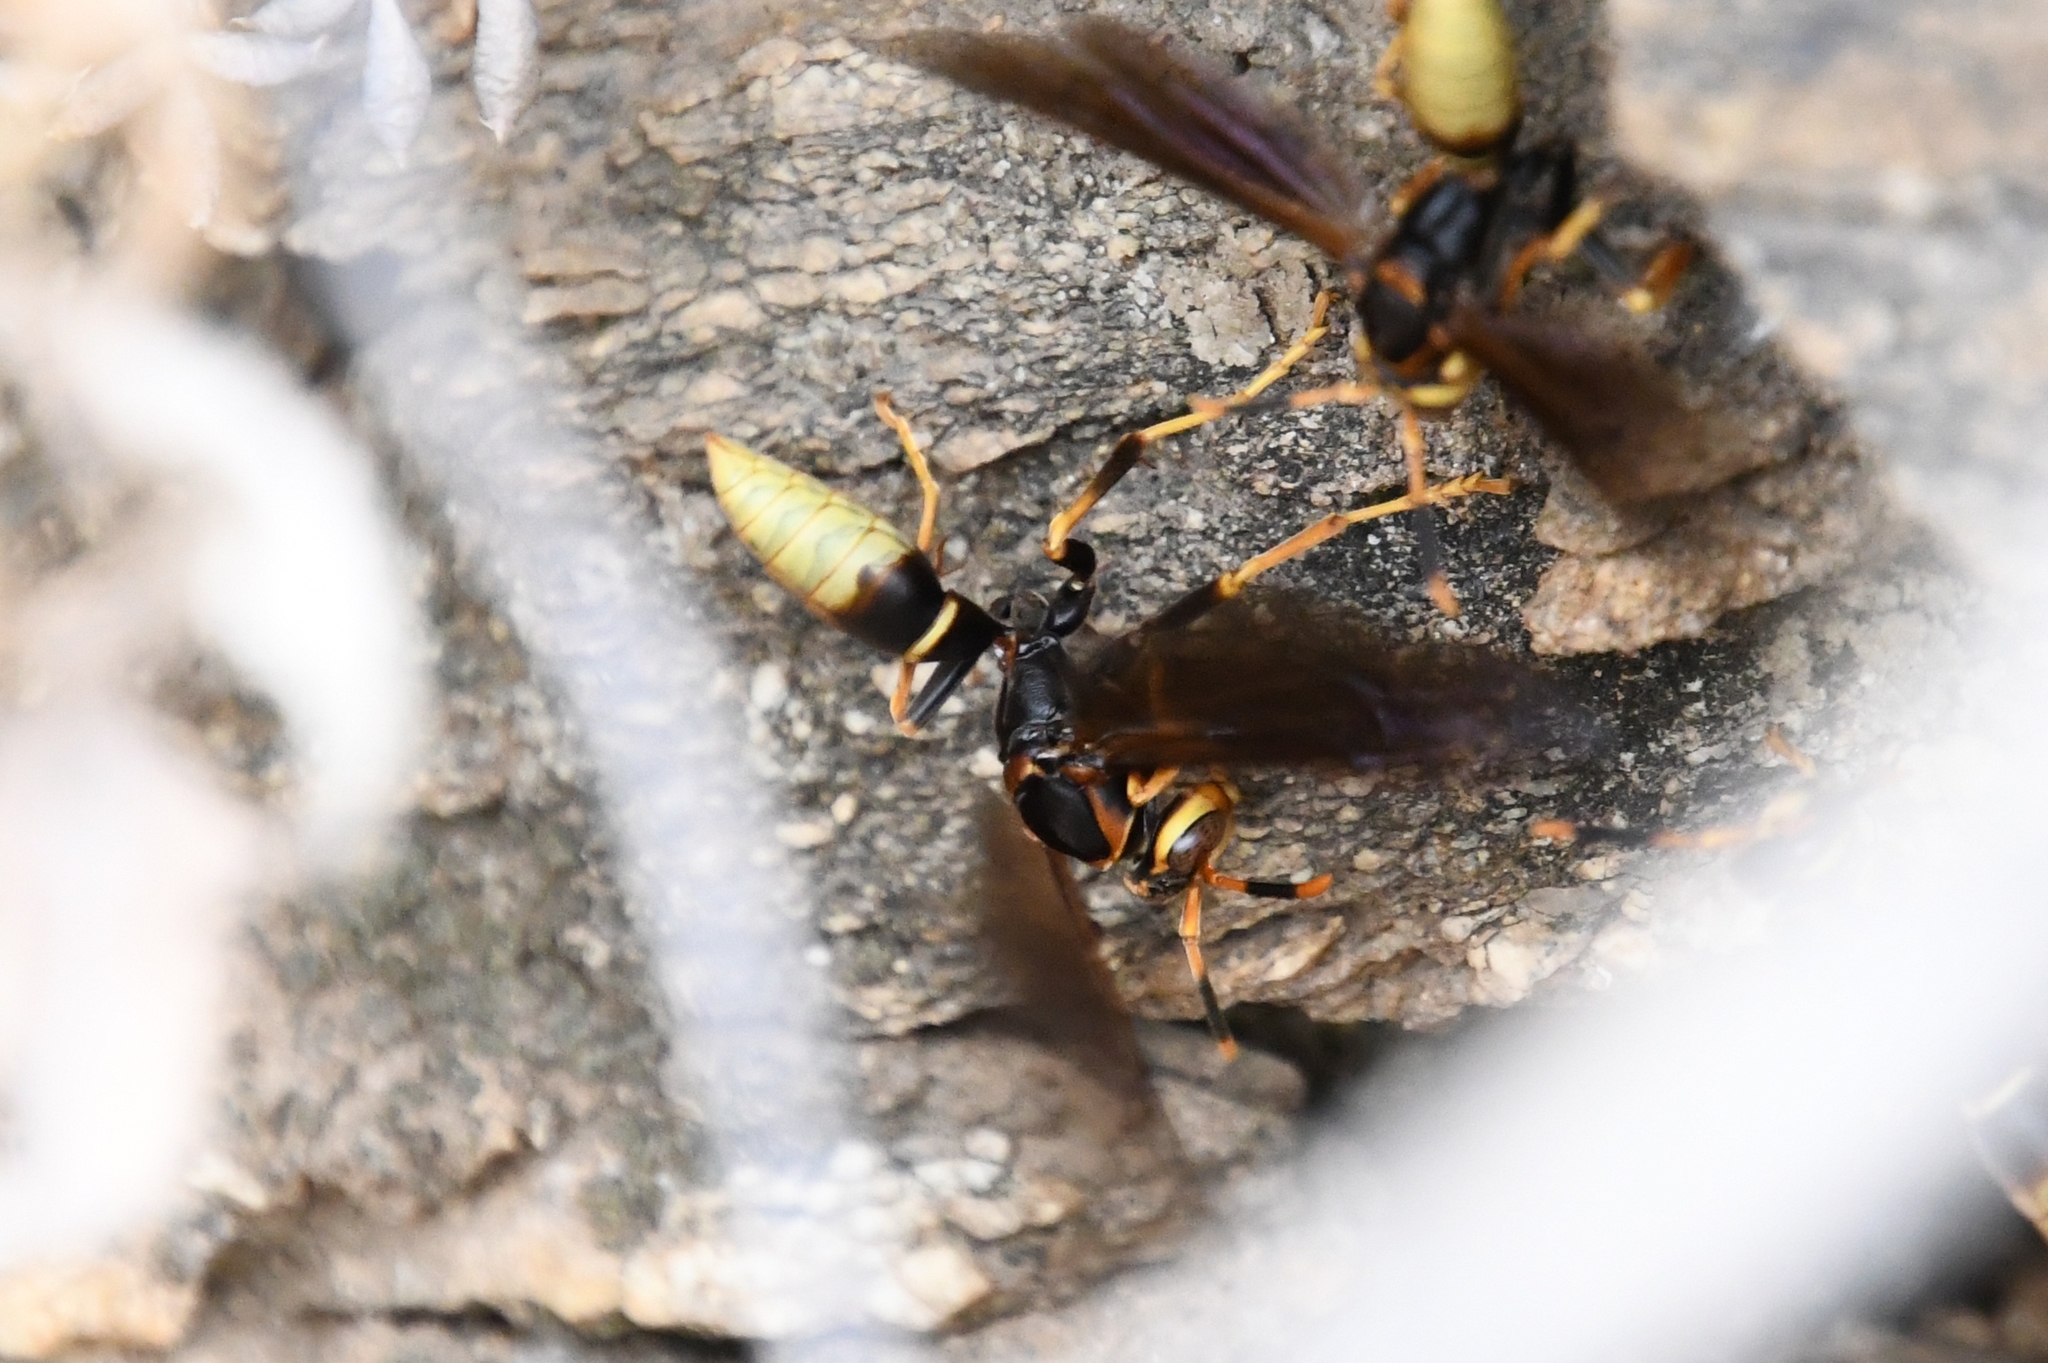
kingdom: Animalia
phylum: Arthropoda
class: Insecta
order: Hymenoptera
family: Eumenidae
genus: Polistes
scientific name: Polistes comanchus
